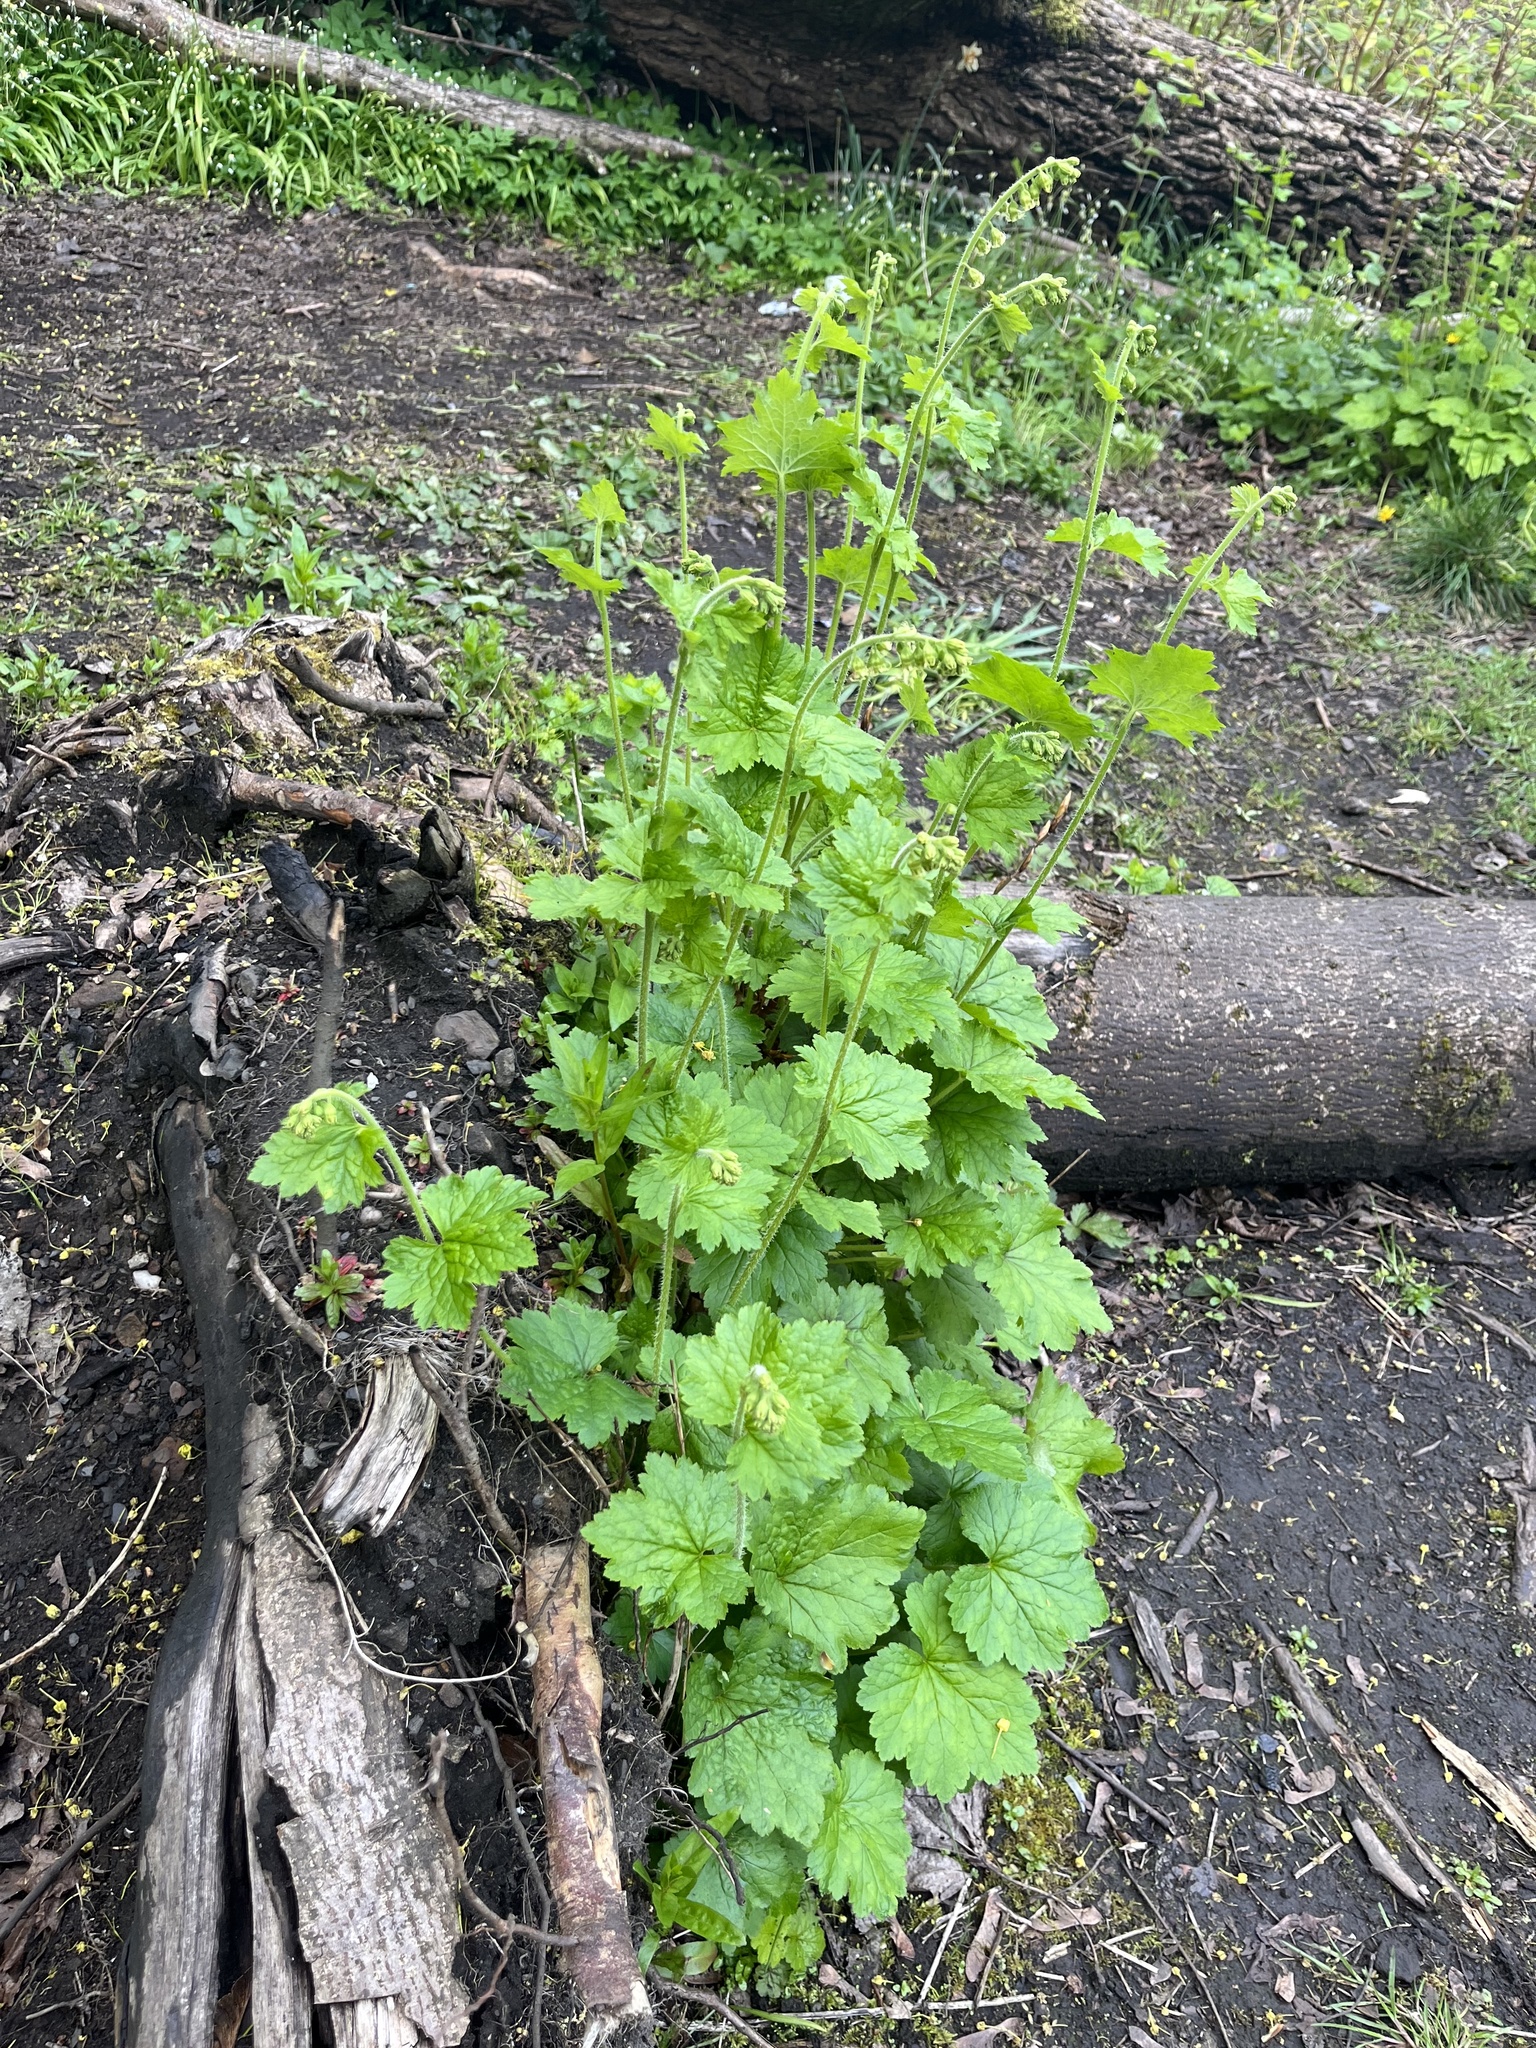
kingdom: Plantae
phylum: Tracheophyta
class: Magnoliopsida
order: Saxifragales
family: Saxifragaceae
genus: Tellima
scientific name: Tellima grandiflora
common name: Fringecups
